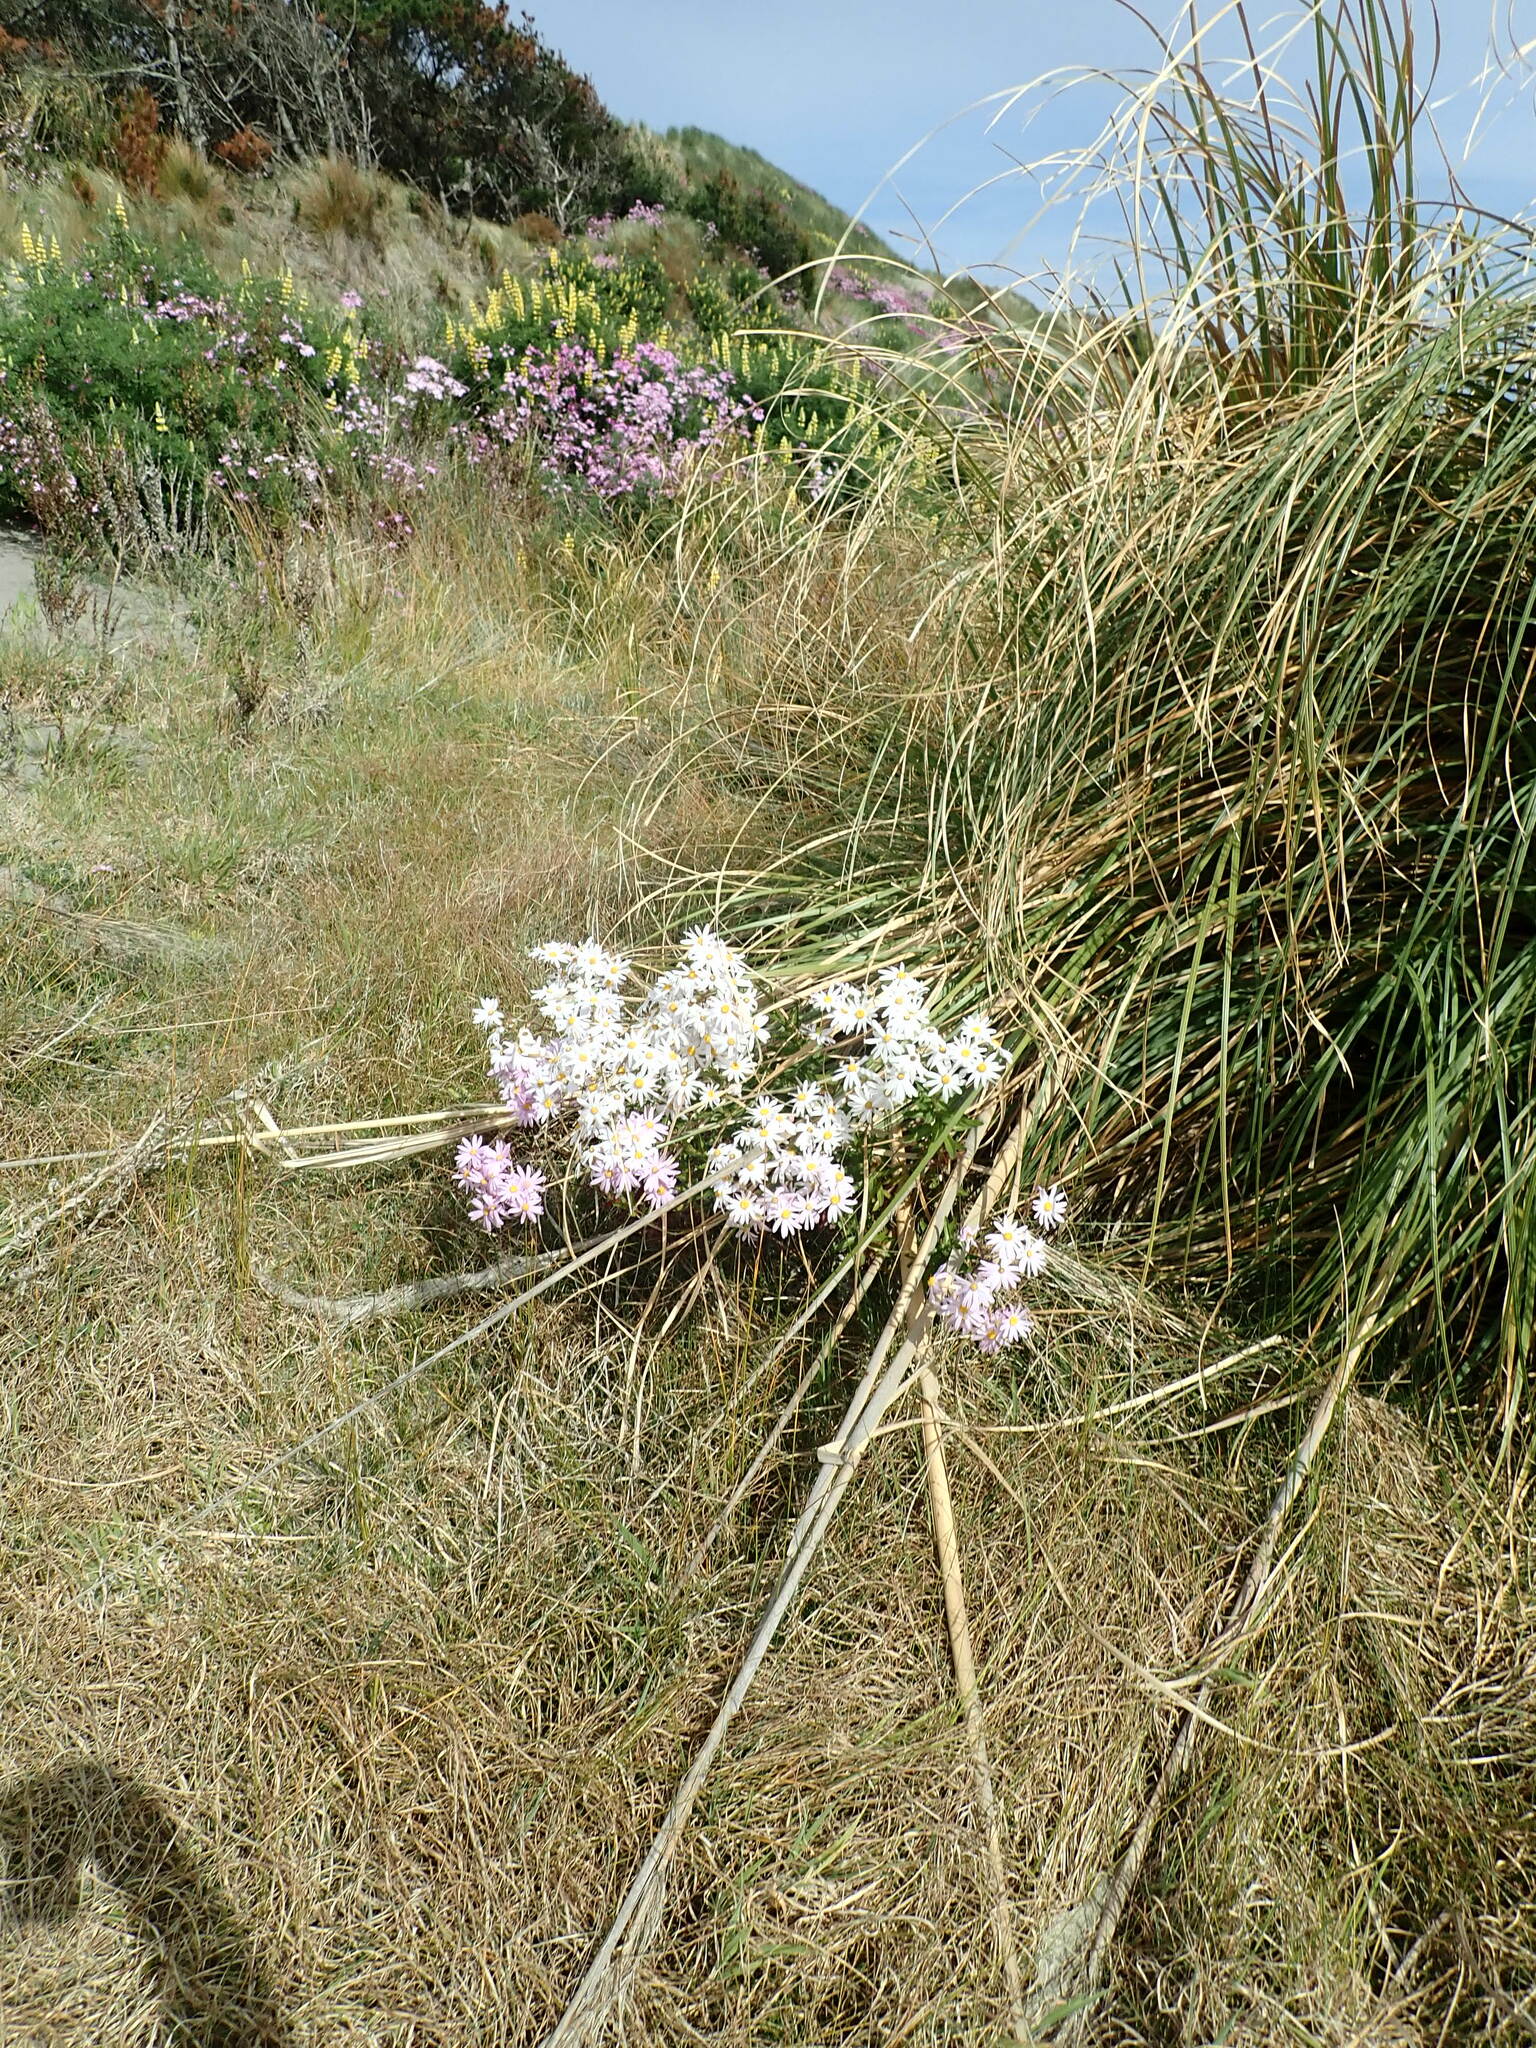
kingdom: Plantae
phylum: Tracheophyta
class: Magnoliopsida
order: Asterales
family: Asteraceae
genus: Senecio
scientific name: Senecio glastifolius
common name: Woad-leaved ragwort
